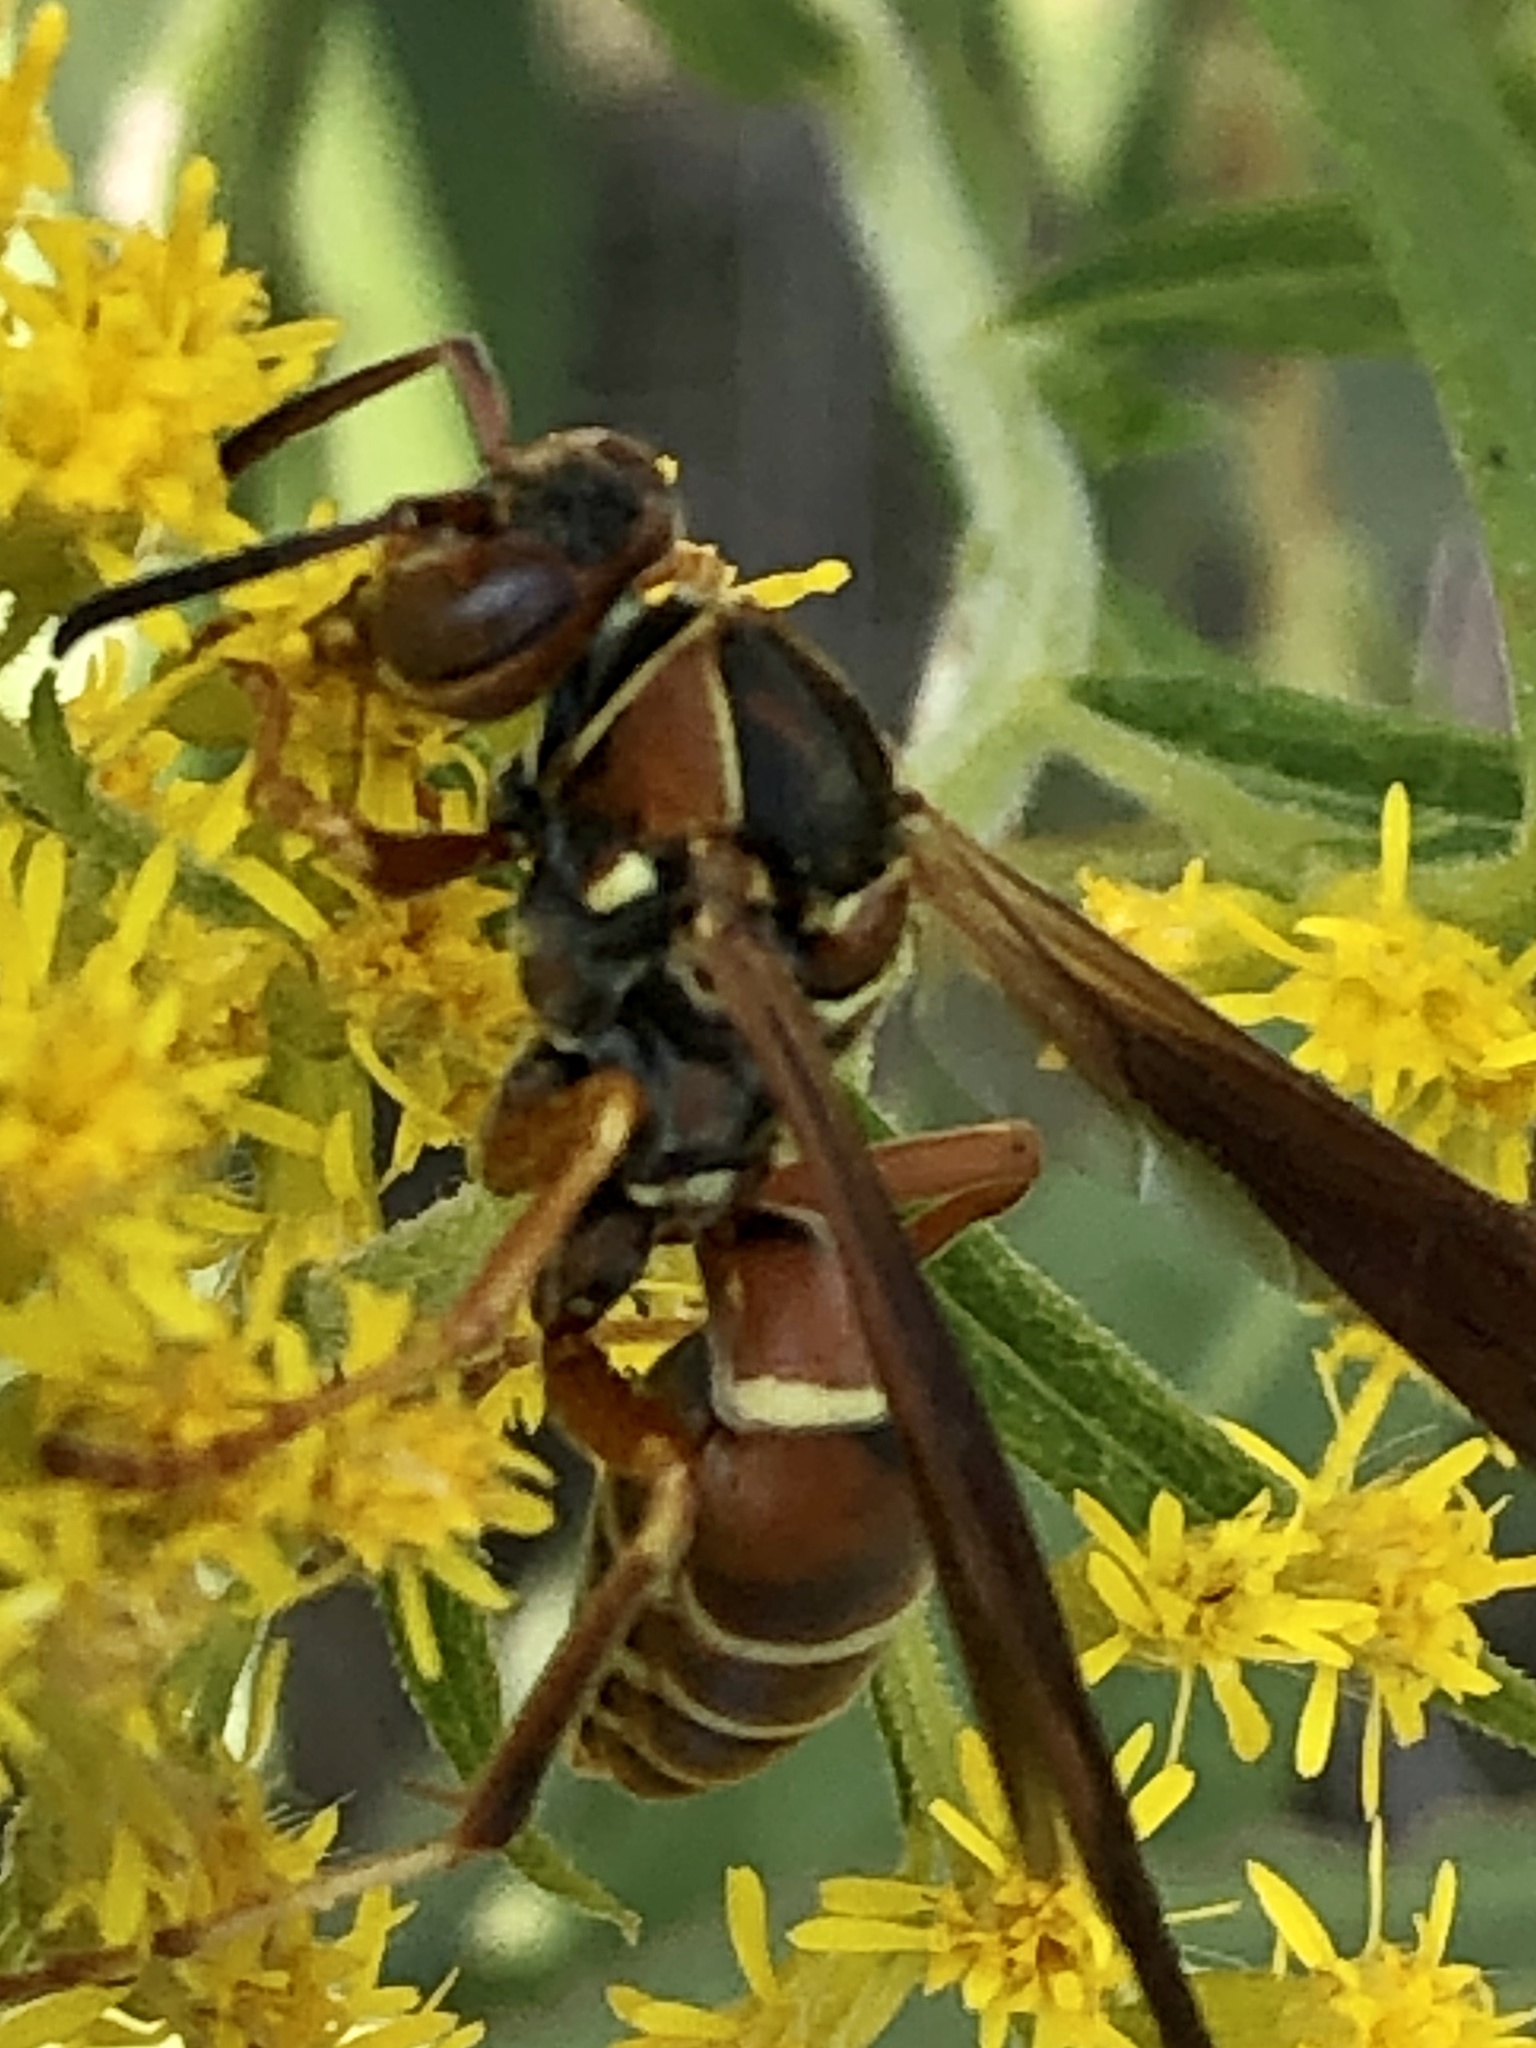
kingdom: Animalia
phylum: Arthropoda
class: Insecta
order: Hymenoptera
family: Eumenidae
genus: Polistes
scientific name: Polistes fuscatus
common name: Dark paper wasp
